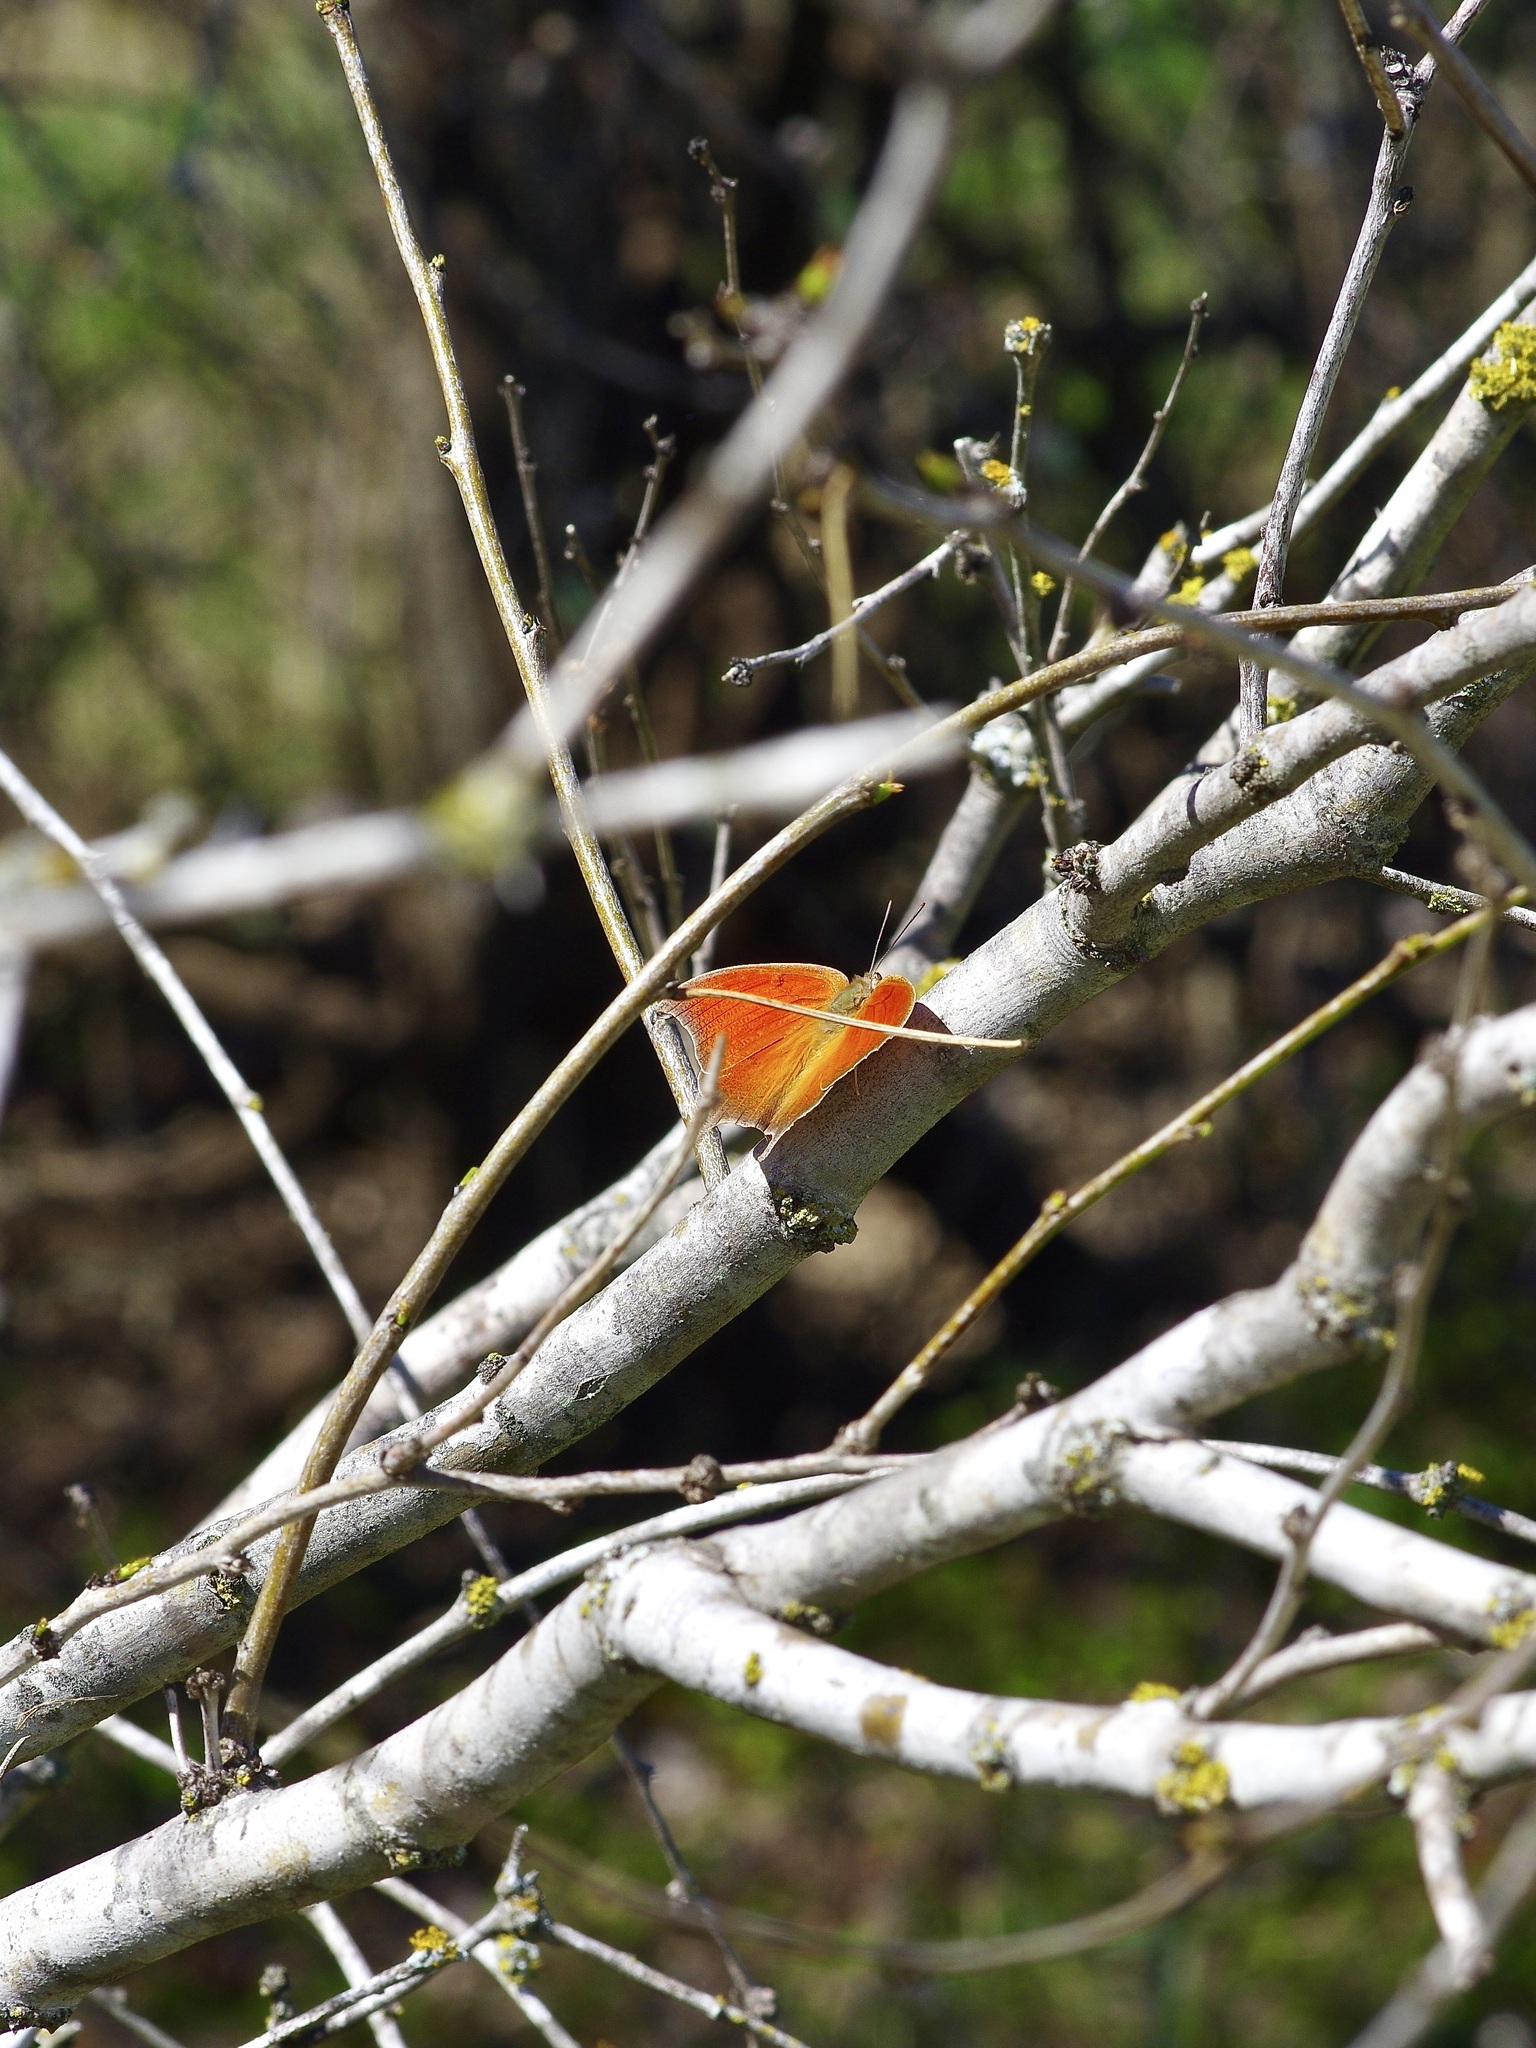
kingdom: Animalia
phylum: Arthropoda
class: Insecta
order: Lepidoptera
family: Nymphalidae
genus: Anaea
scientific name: Anaea andria
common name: Goatweed leafwing
